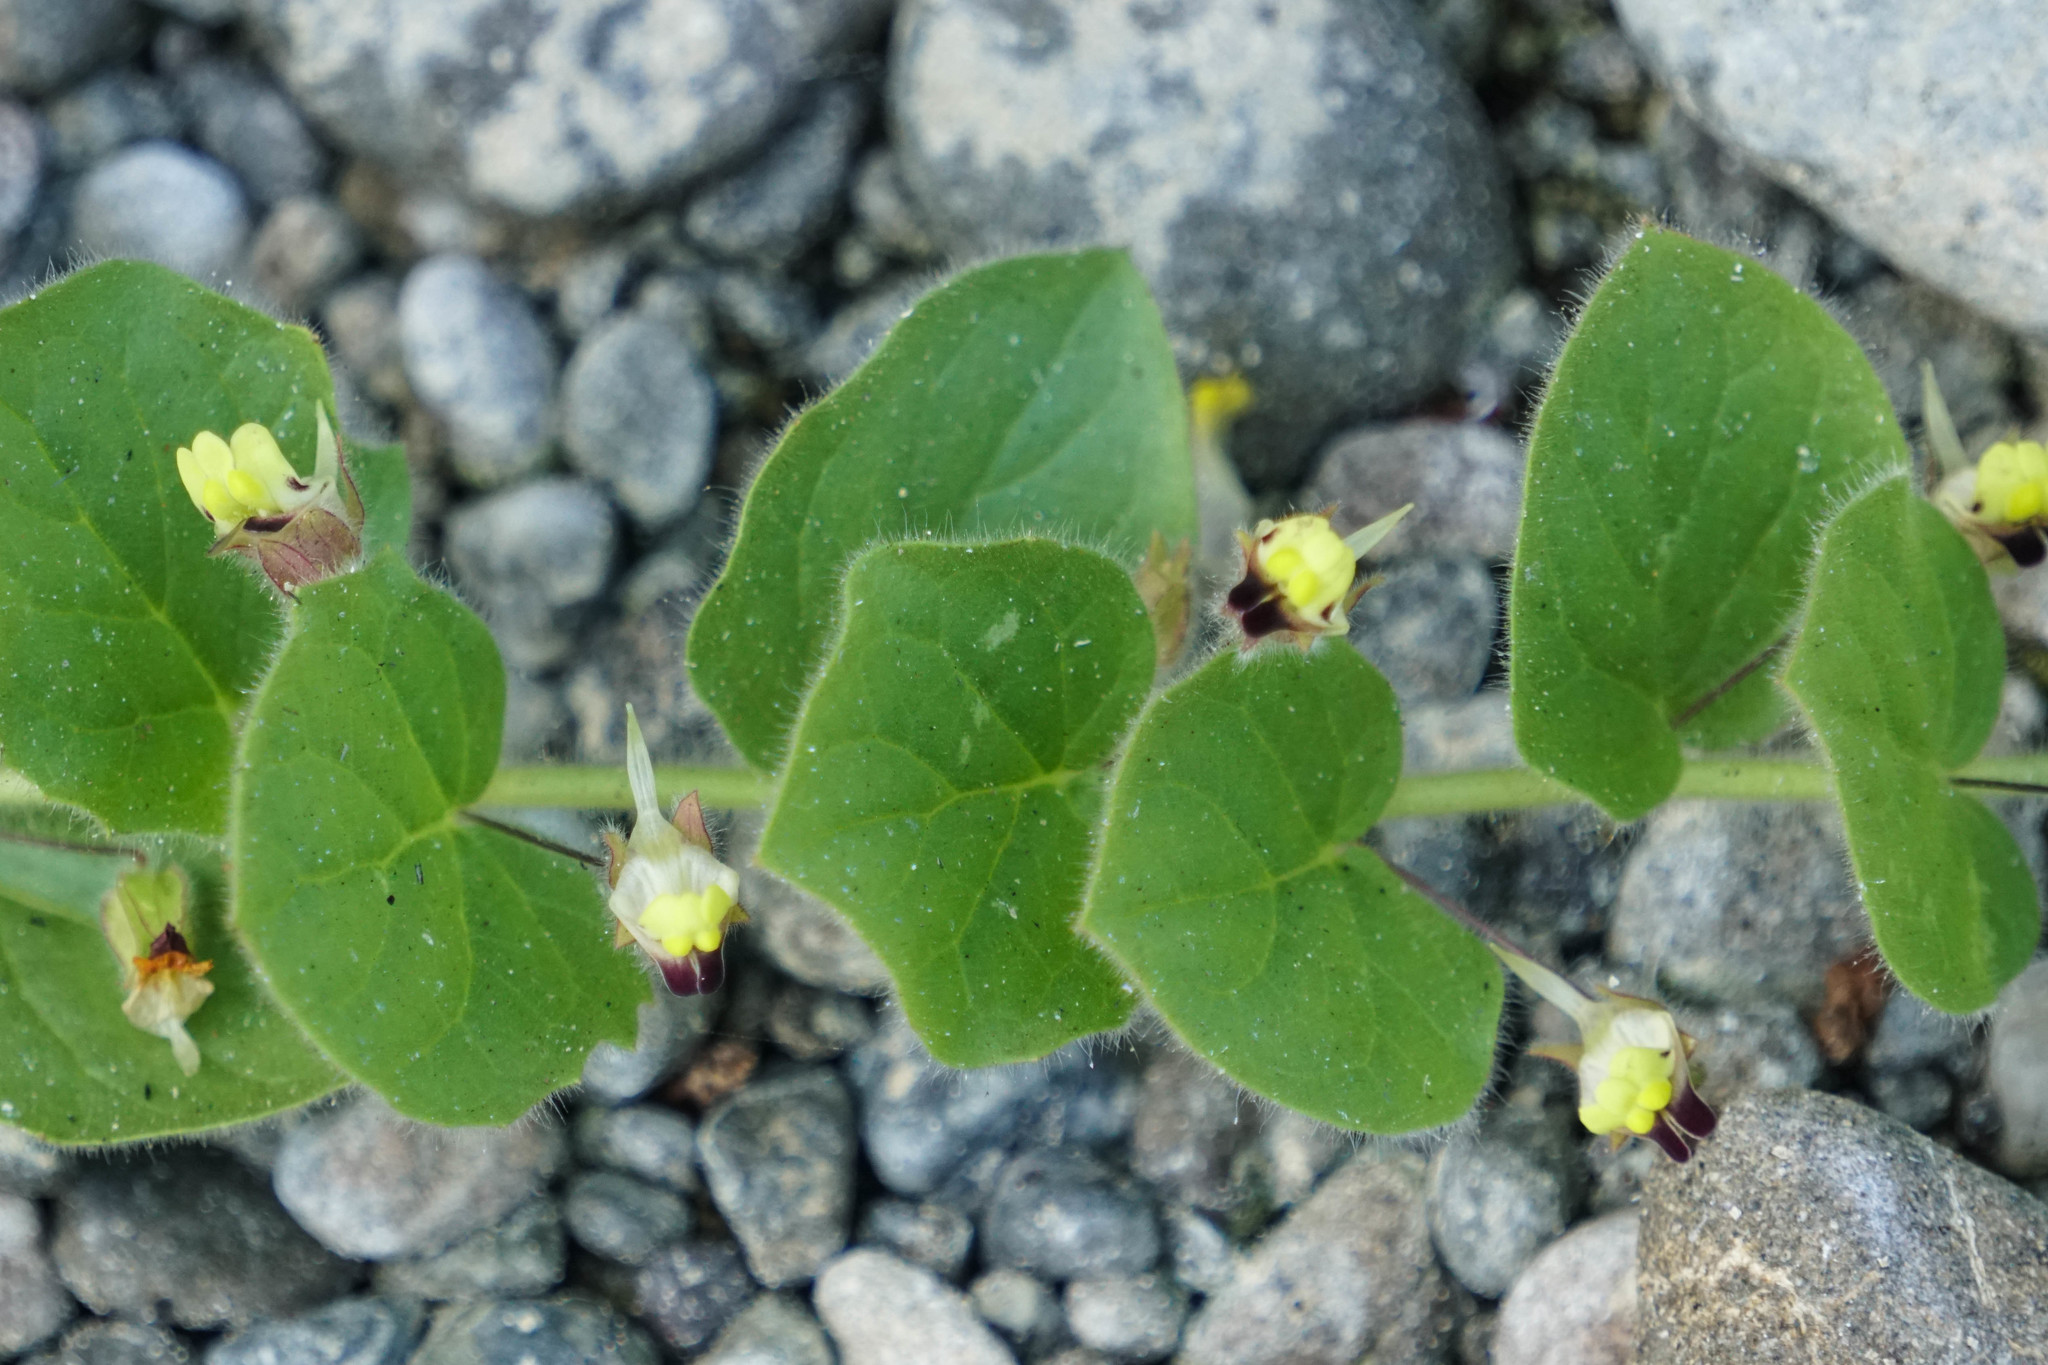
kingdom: Plantae
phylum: Tracheophyta
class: Magnoliopsida
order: Lamiales
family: Plantaginaceae
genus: Kickxia
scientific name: Kickxia elatine
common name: Sharp-leaved fluellen
